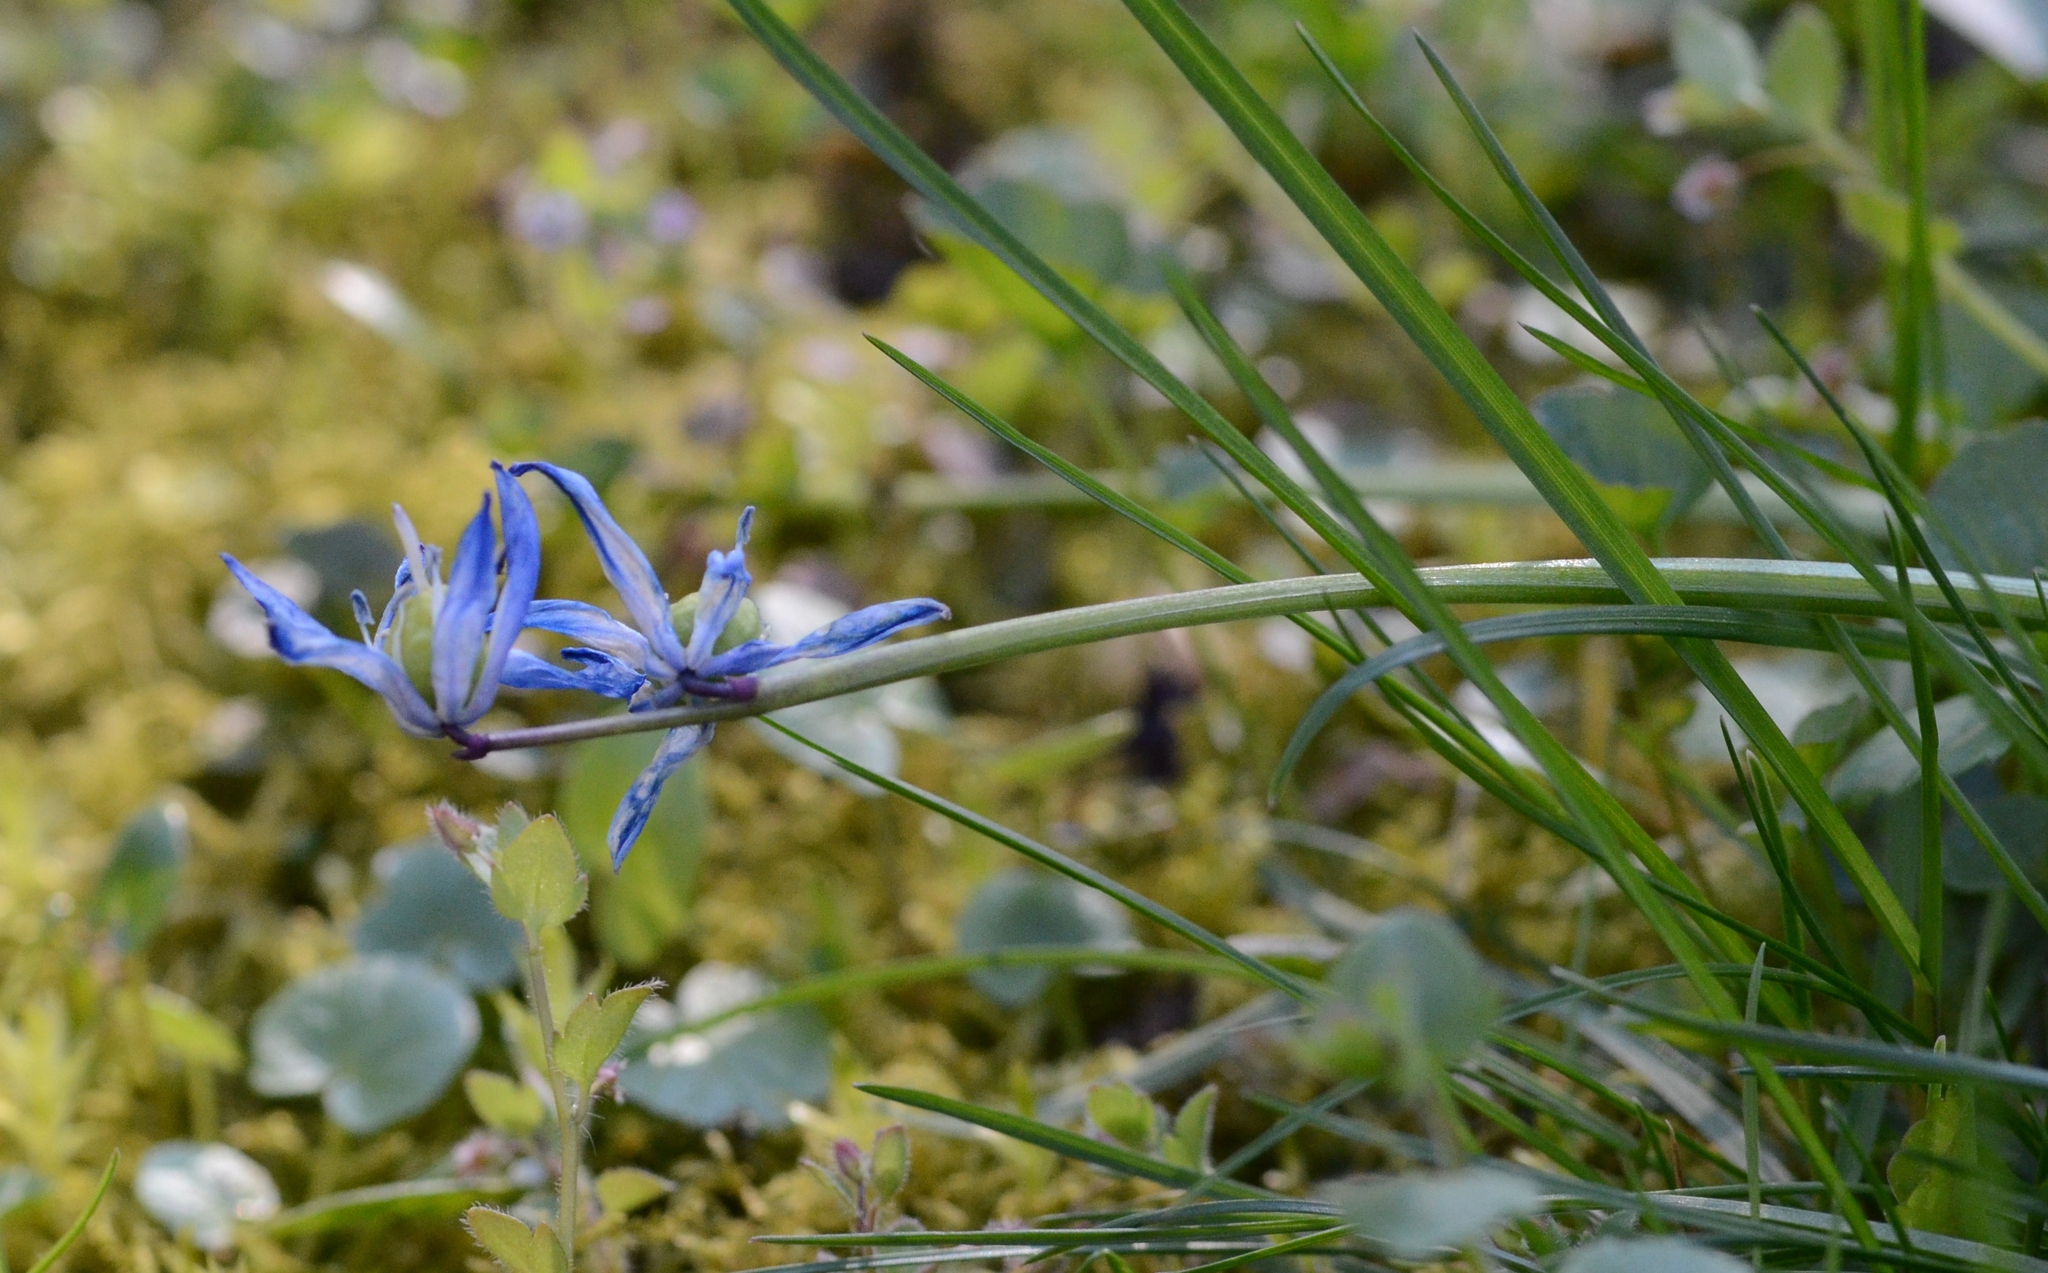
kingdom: Plantae
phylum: Tracheophyta
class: Liliopsida
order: Asparagales
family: Asparagaceae
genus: Scilla
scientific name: Scilla siberica
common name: Siberian squill
